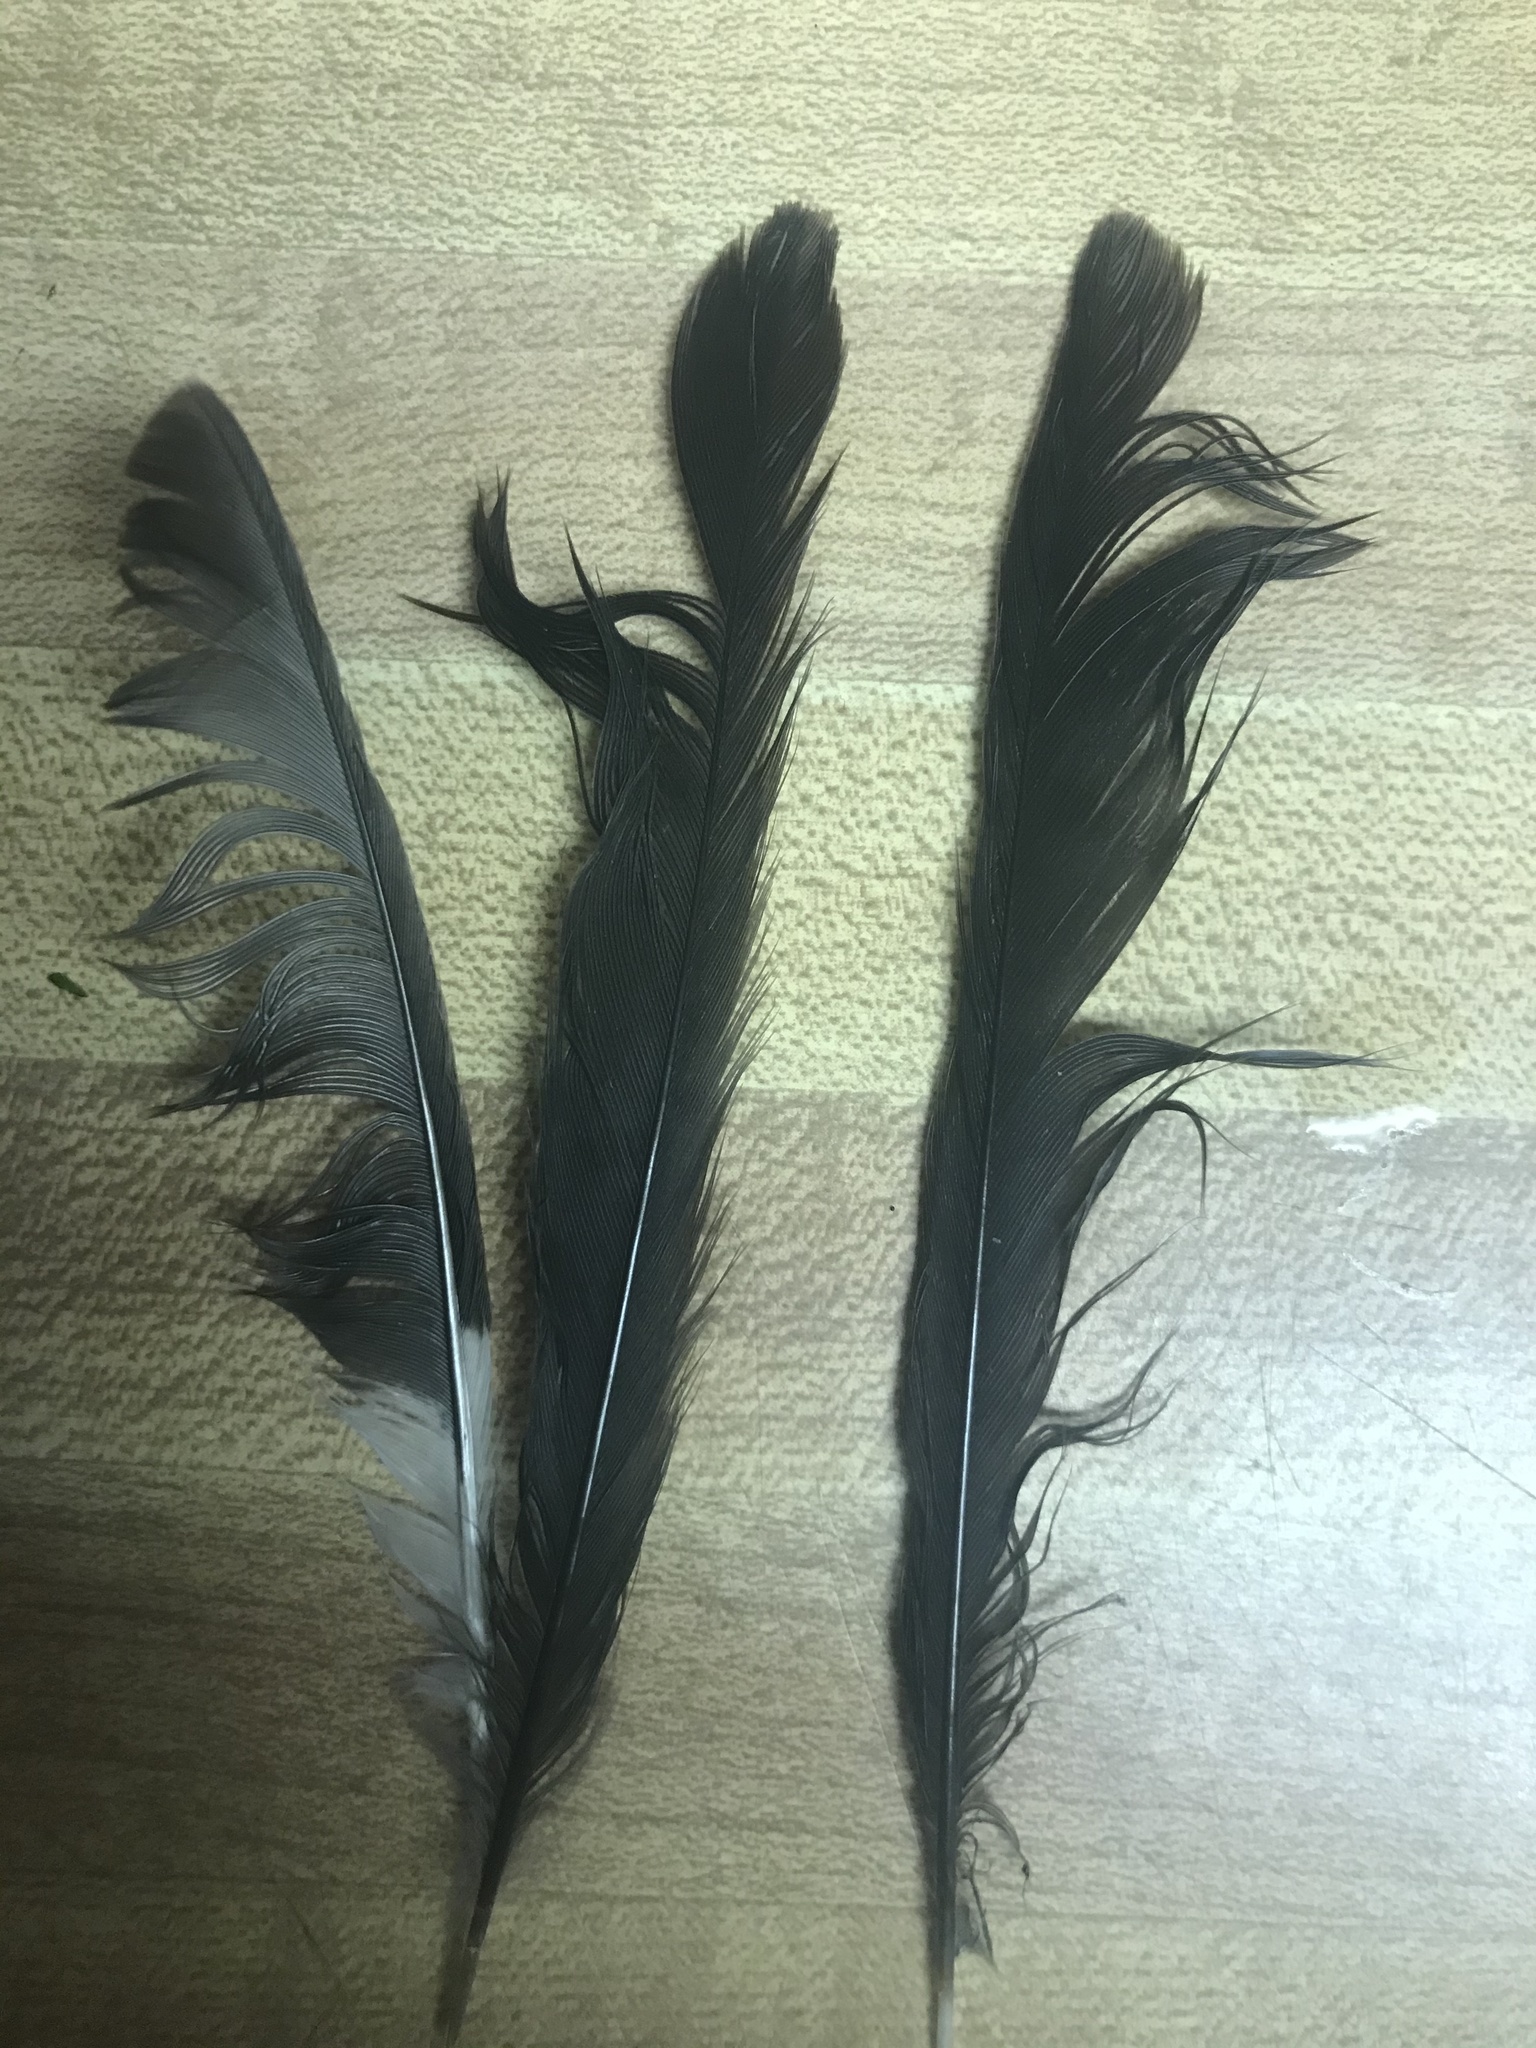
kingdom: Animalia
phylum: Chordata
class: Aves
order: Passeriformes
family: Mimidae
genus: Mimus
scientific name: Mimus polyglottos
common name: Northern mockingbird
